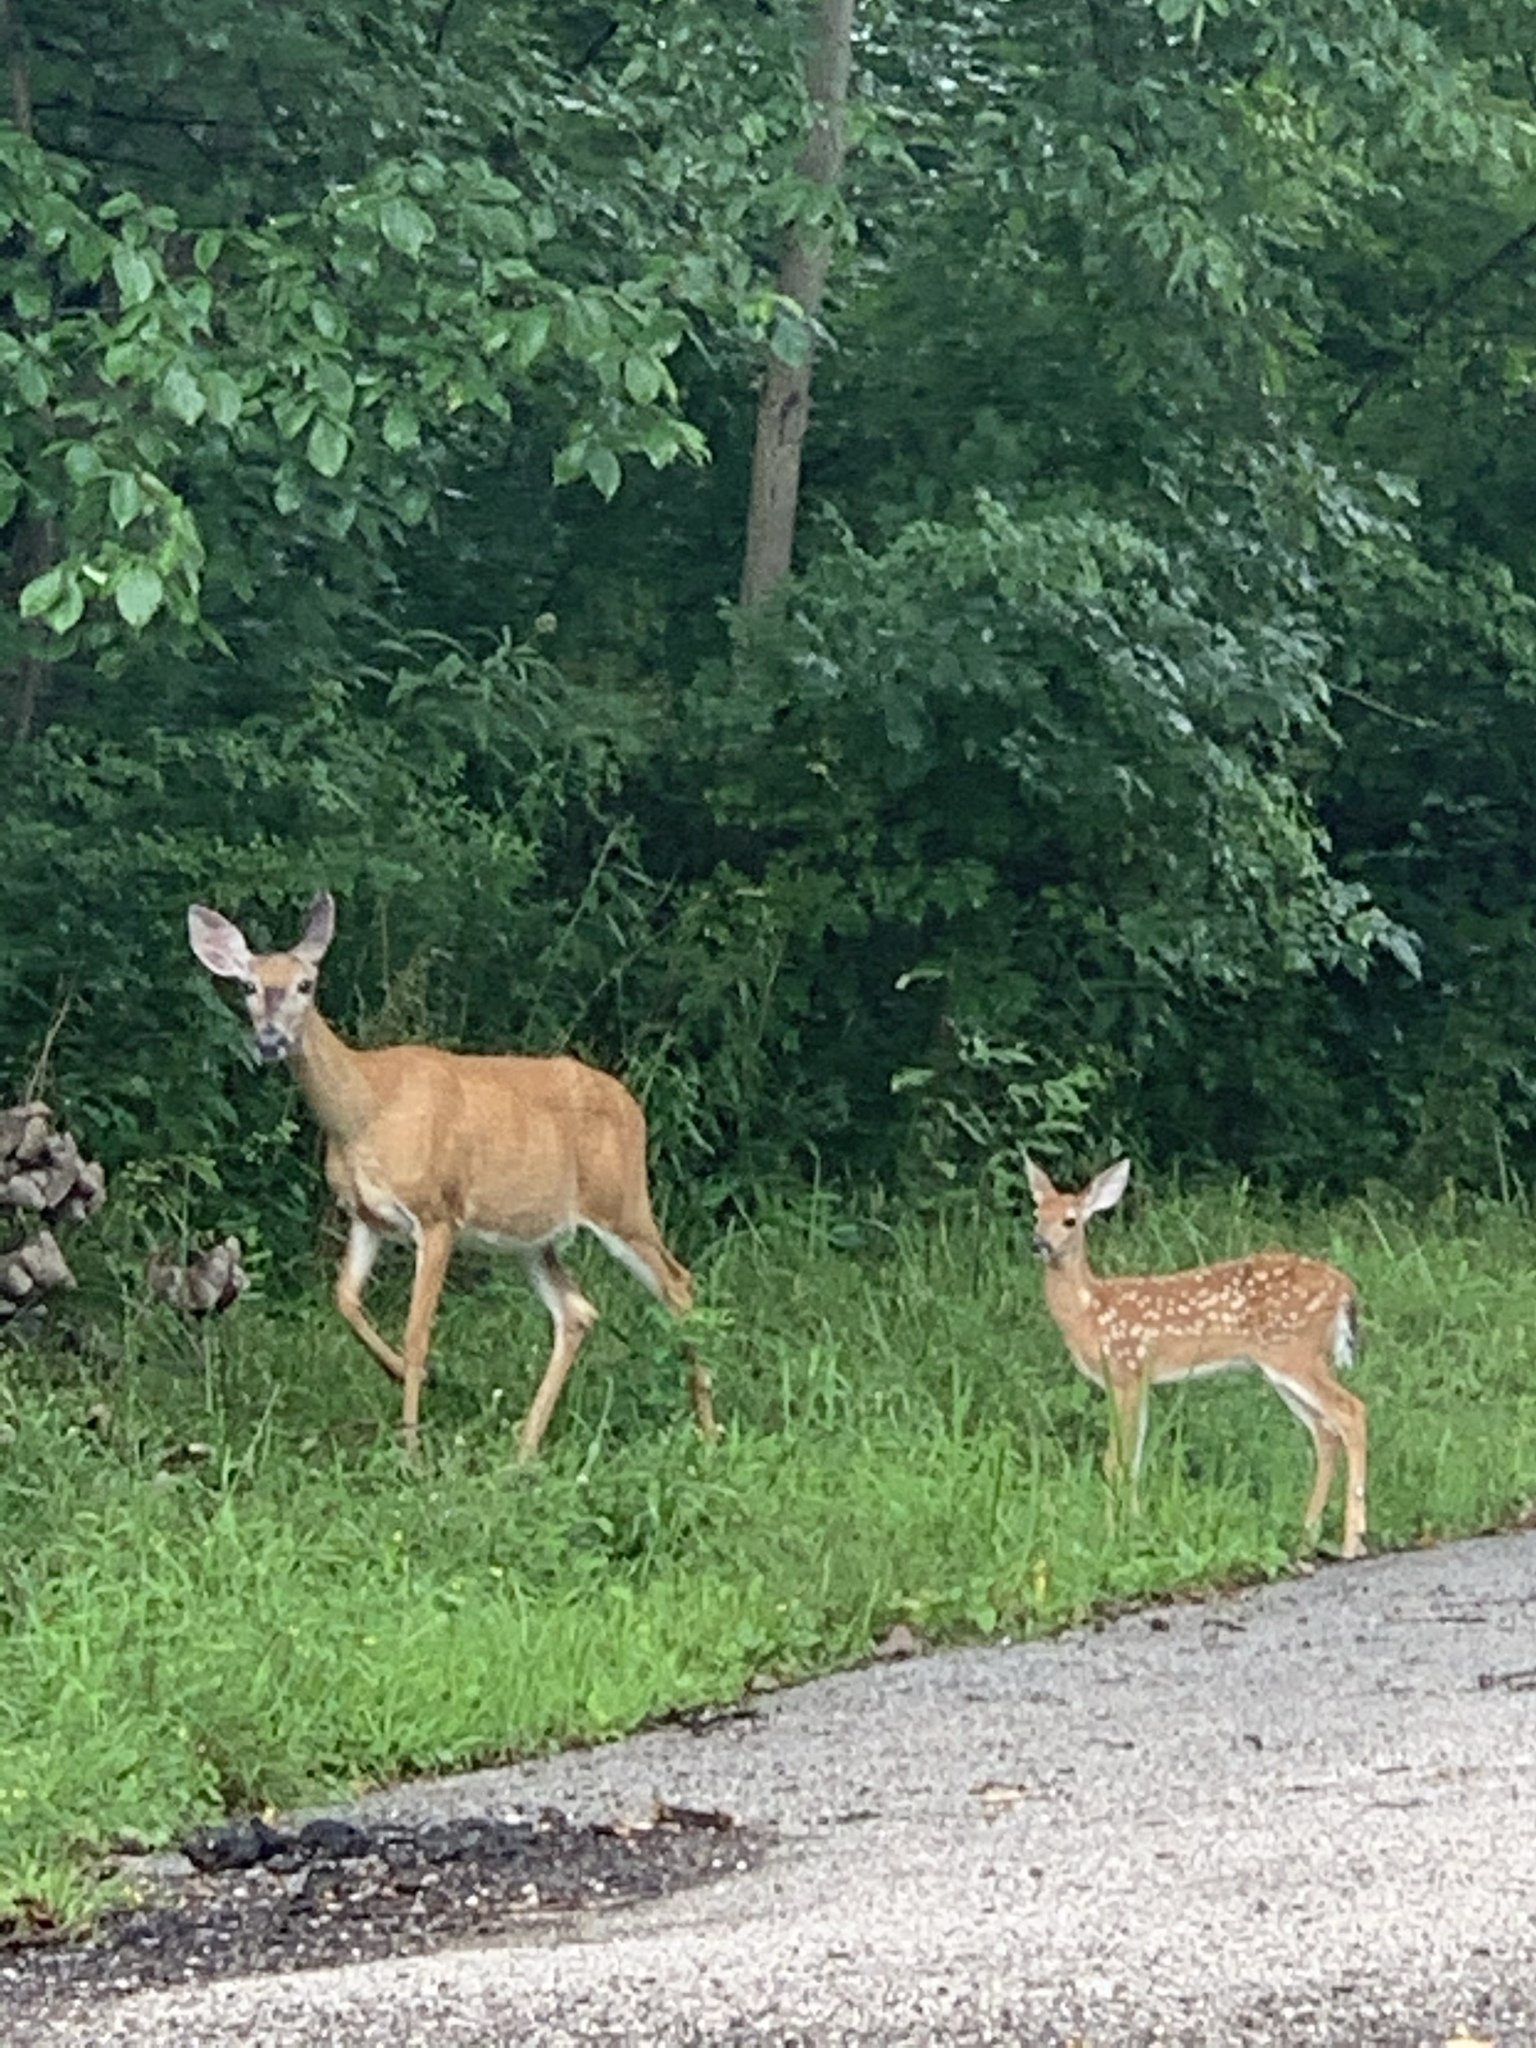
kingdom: Animalia
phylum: Chordata
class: Mammalia
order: Artiodactyla
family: Cervidae
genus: Odocoileus
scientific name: Odocoileus virginianus
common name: White-tailed deer
